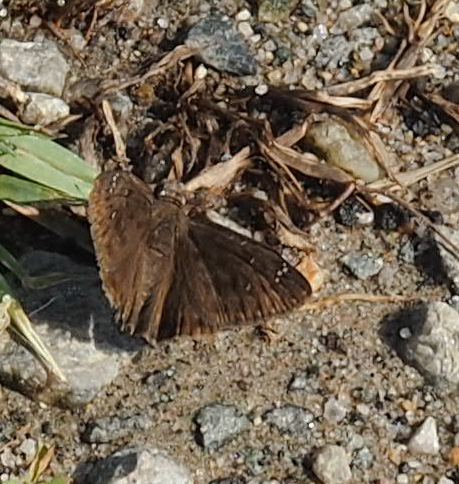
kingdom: Animalia
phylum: Arthropoda
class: Insecta
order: Lepidoptera
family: Hesperiidae
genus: Erynnis
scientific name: Erynnis horatius
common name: Horace's duskywing
